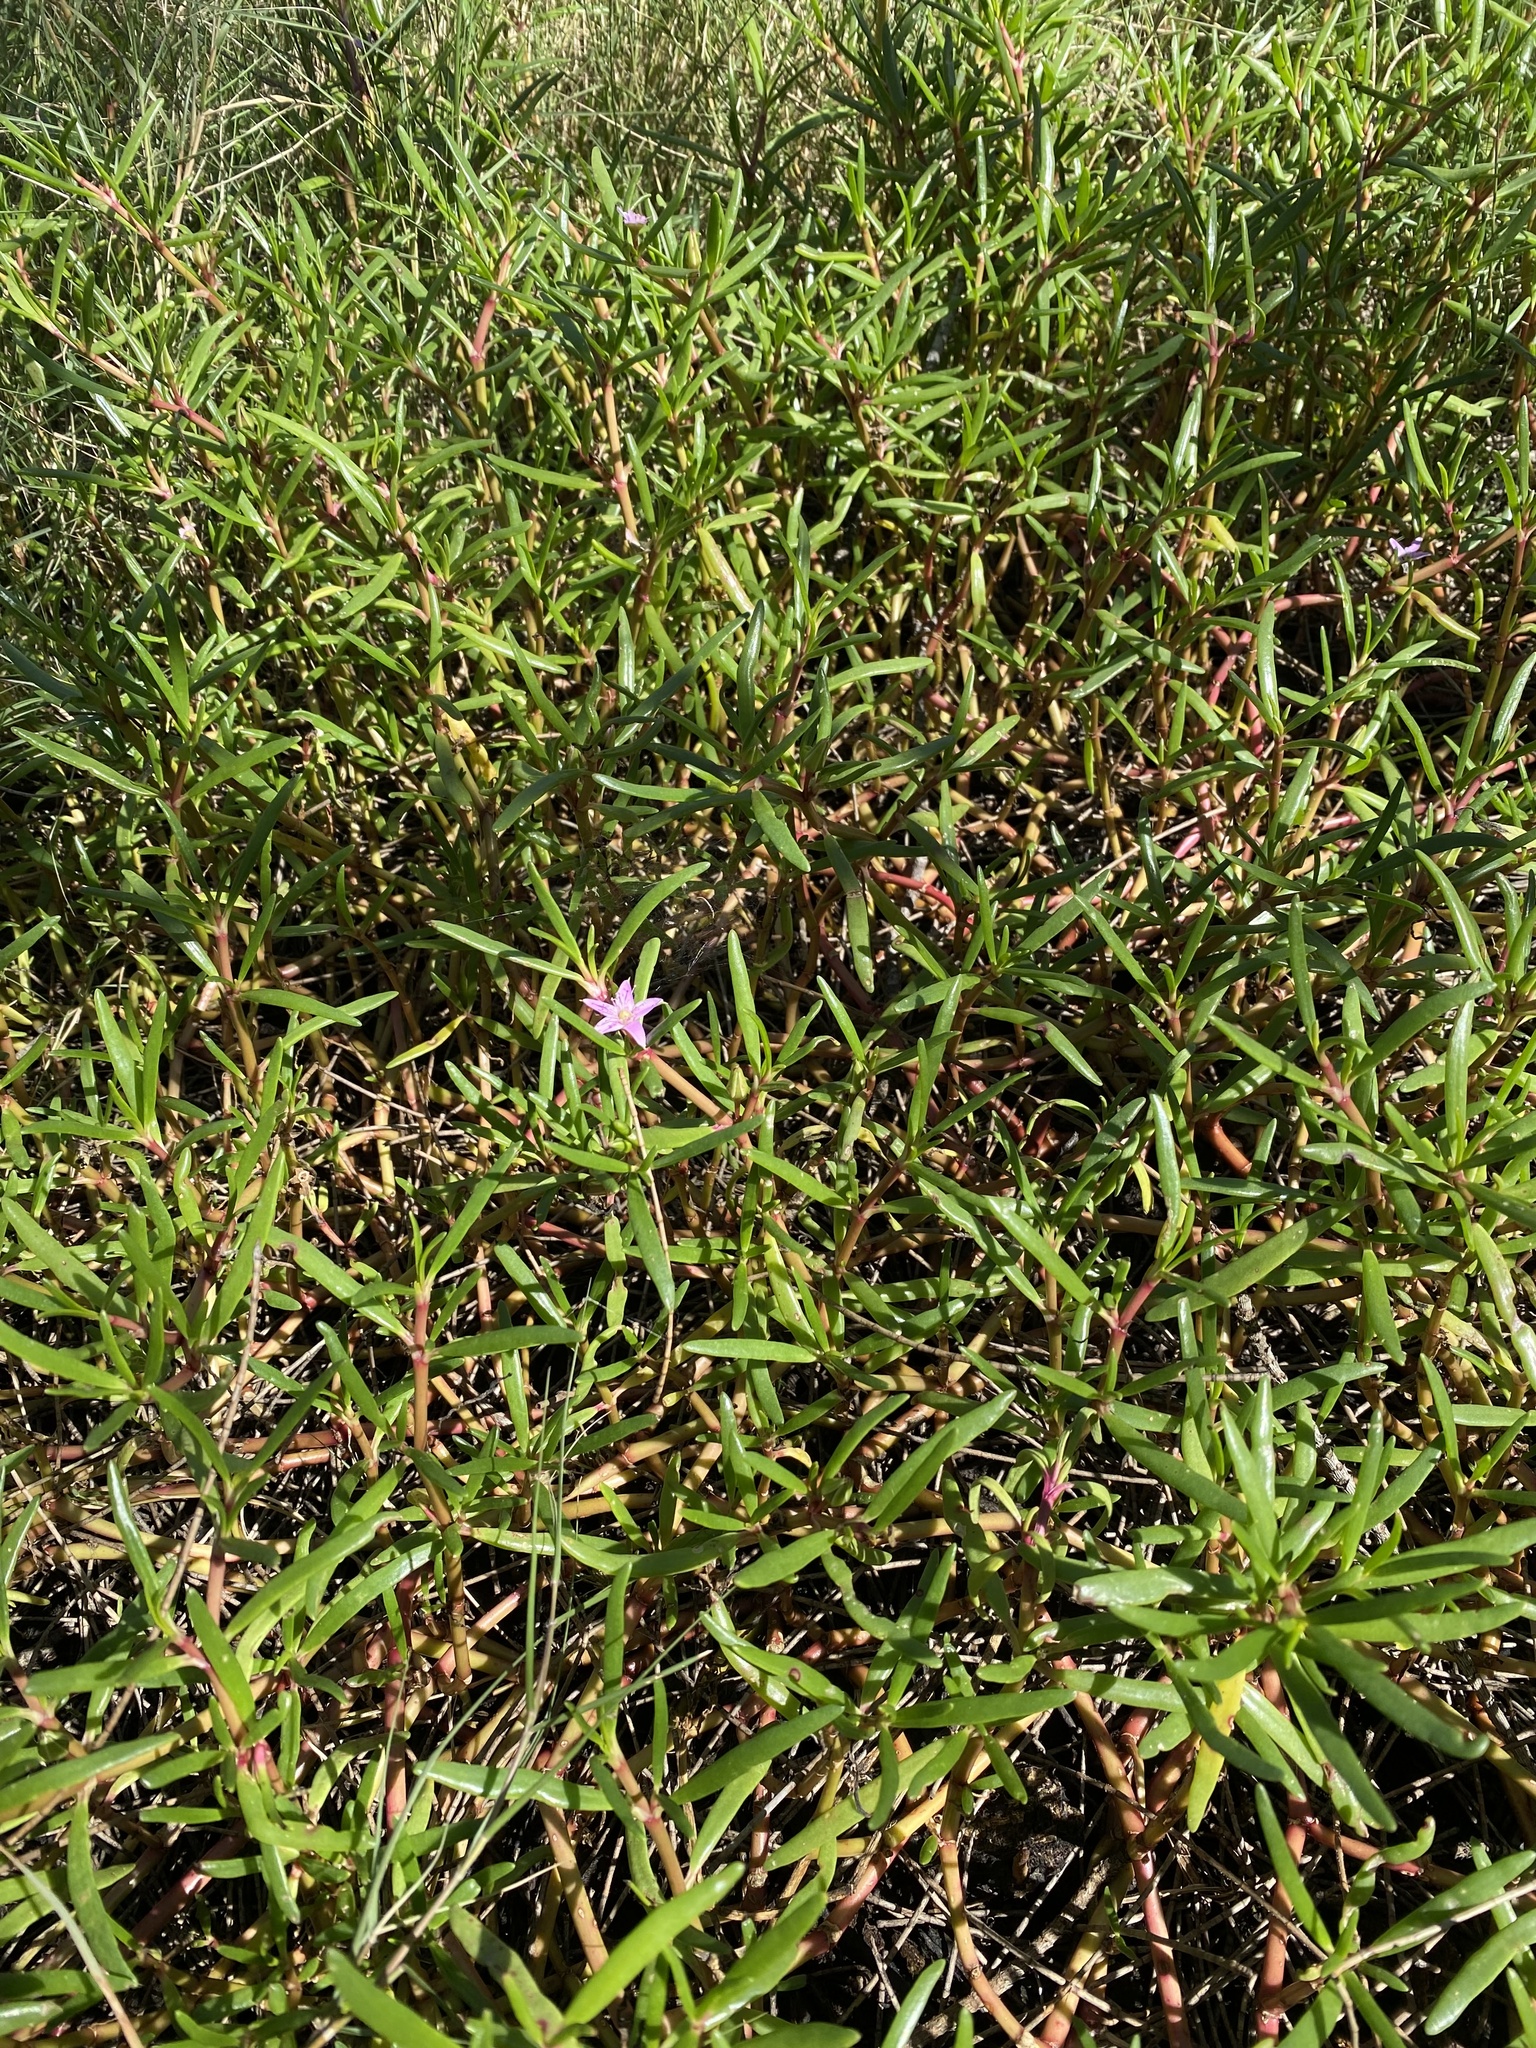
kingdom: Plantae
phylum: Tracheophyta
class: Magnoliopsida
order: Caryophyllales
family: Aizoaceae
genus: Sesuvium
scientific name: Sesuvium portulacastrum
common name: Sea-purslane
